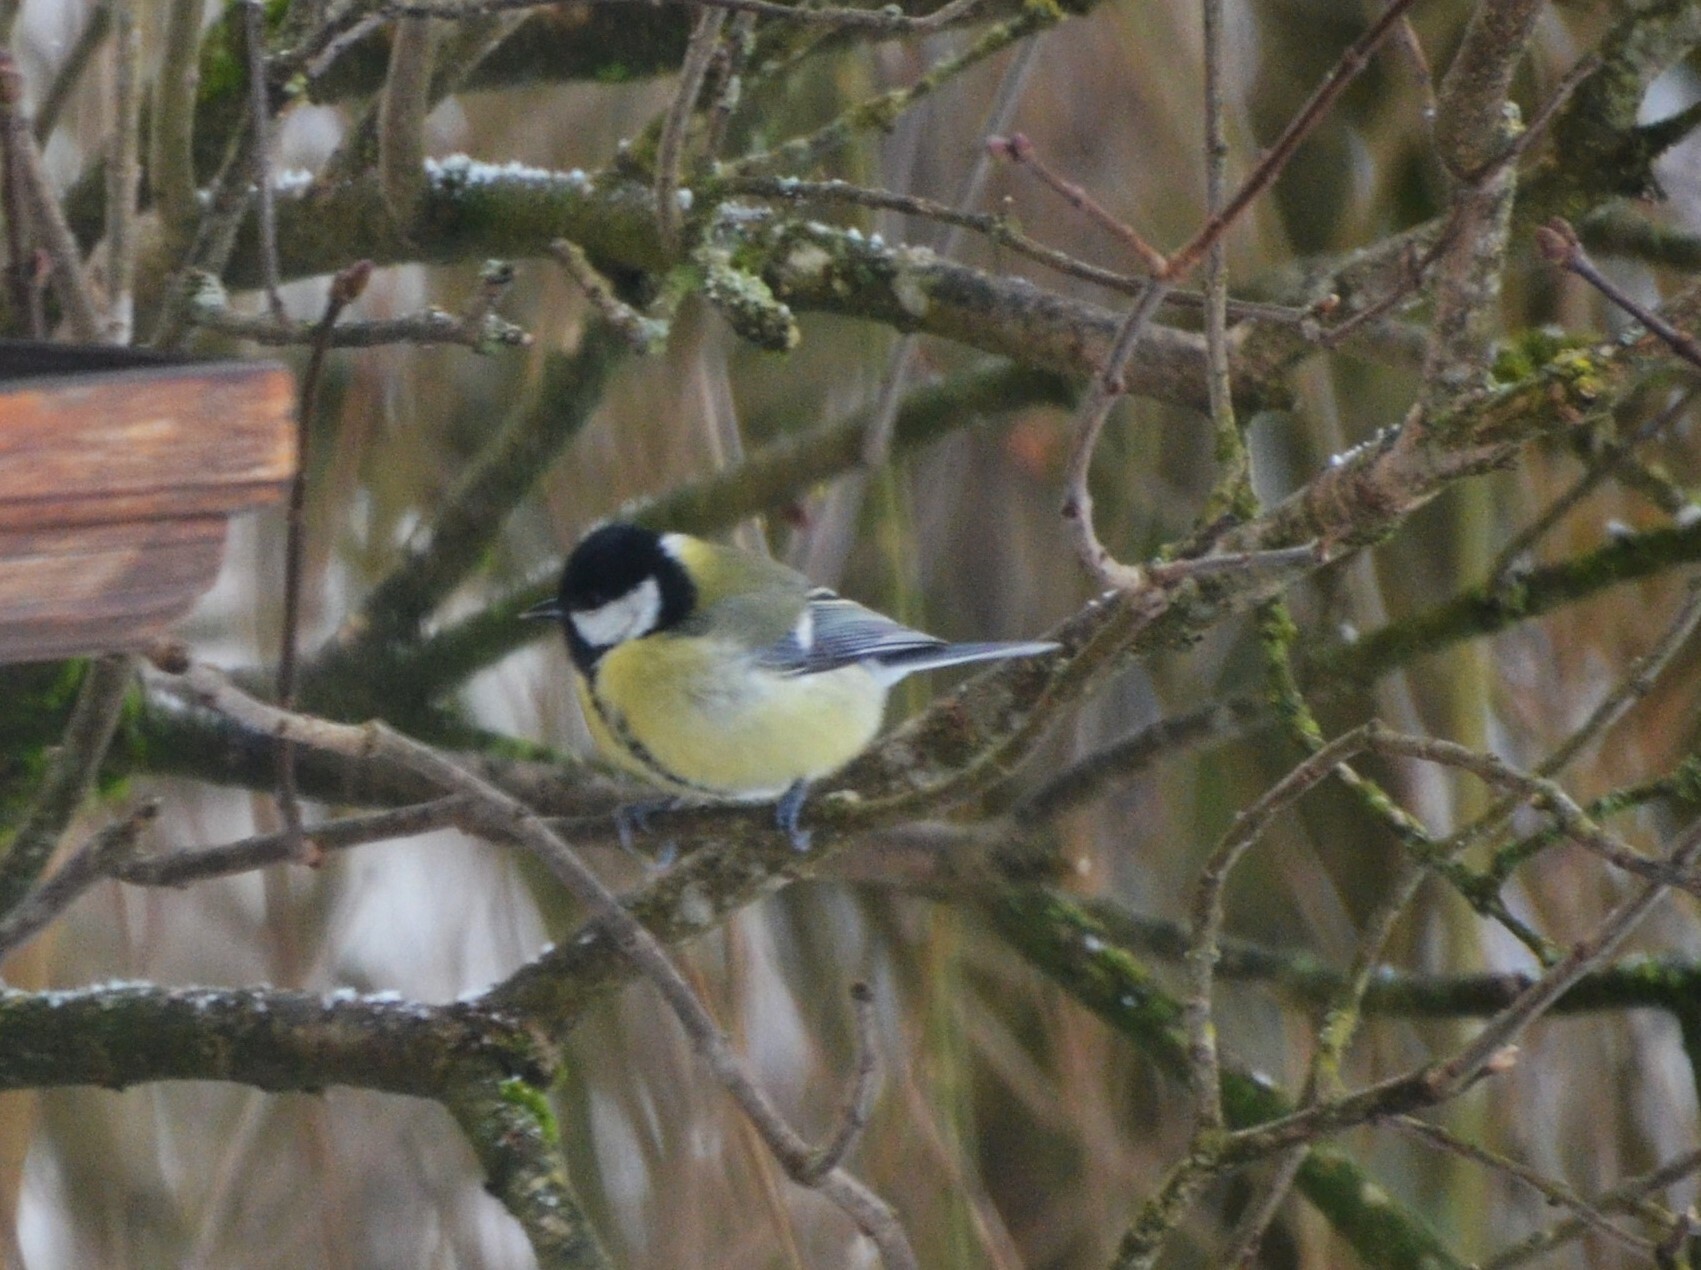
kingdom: Animalia
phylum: Chordata
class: Aves
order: Passeriformes
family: Paridae
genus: Parus
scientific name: Parus major
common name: Great tit
